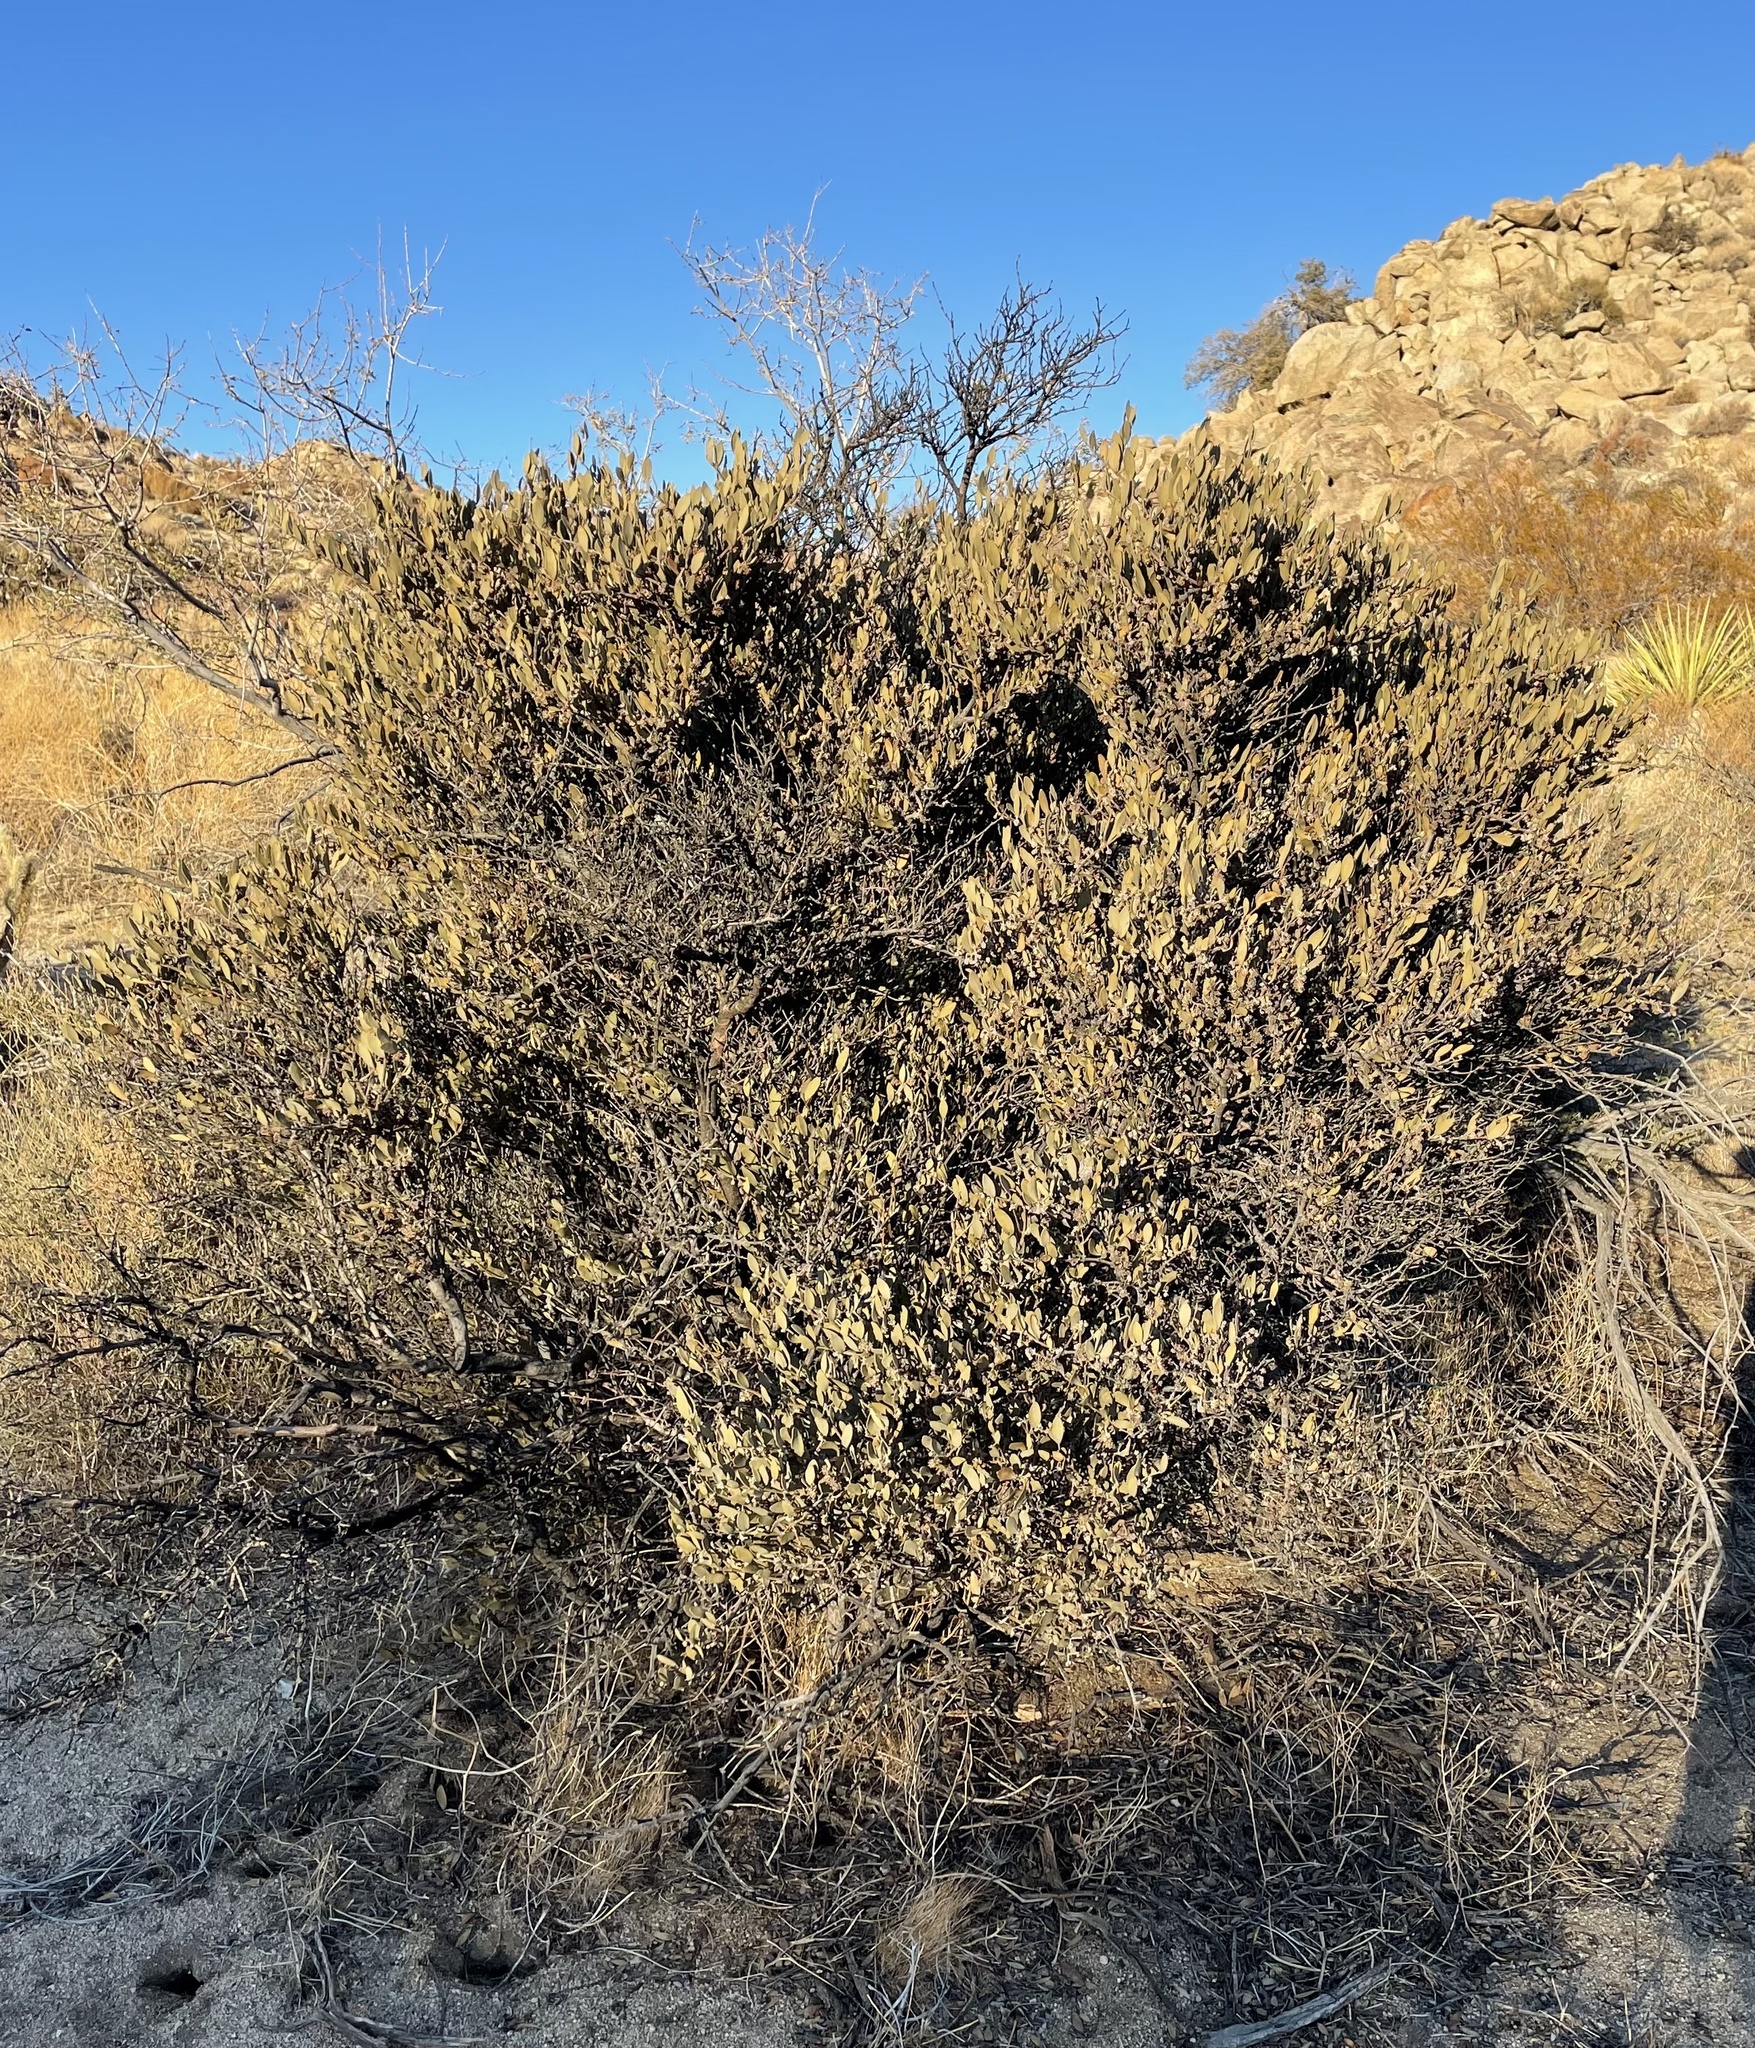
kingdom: Plantae
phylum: Tracheophyta
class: Magnoliopsida
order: Caryophyllales
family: Simmondsiaceae
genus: Simmondsia
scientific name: Simmondsia chinensis
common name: Jojoba
